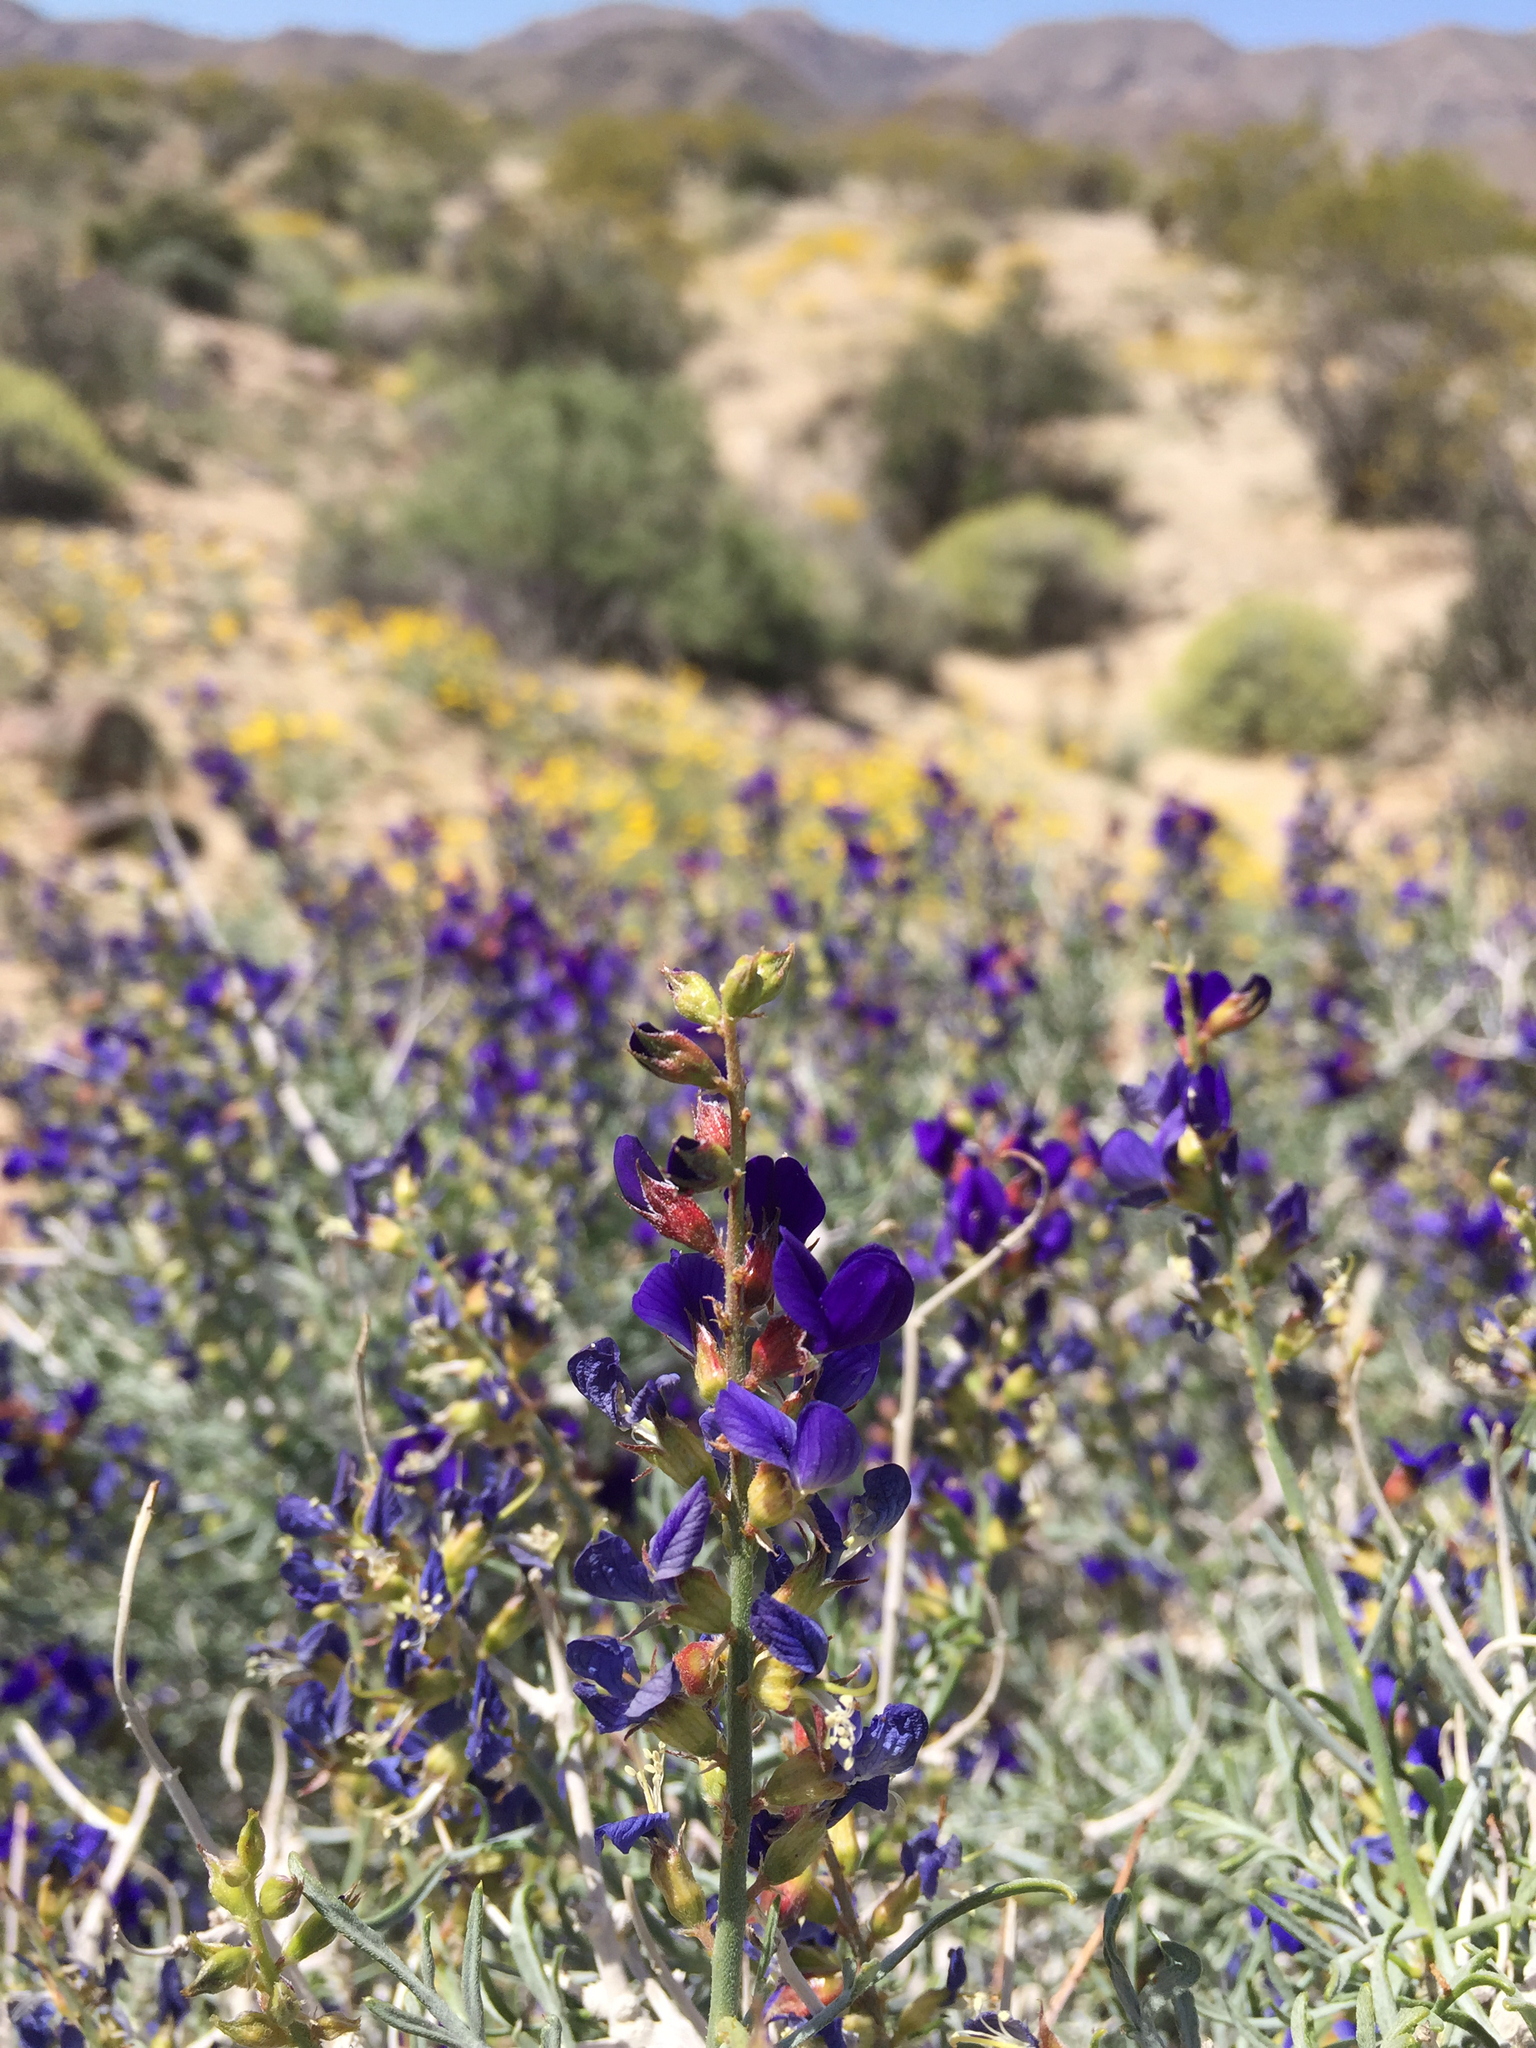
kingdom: Plantae
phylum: Tracheophyta
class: Magnoliopsida
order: Fabales
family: Fabaceae
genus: Psorothamnus
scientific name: Psorothamnus arborescens
